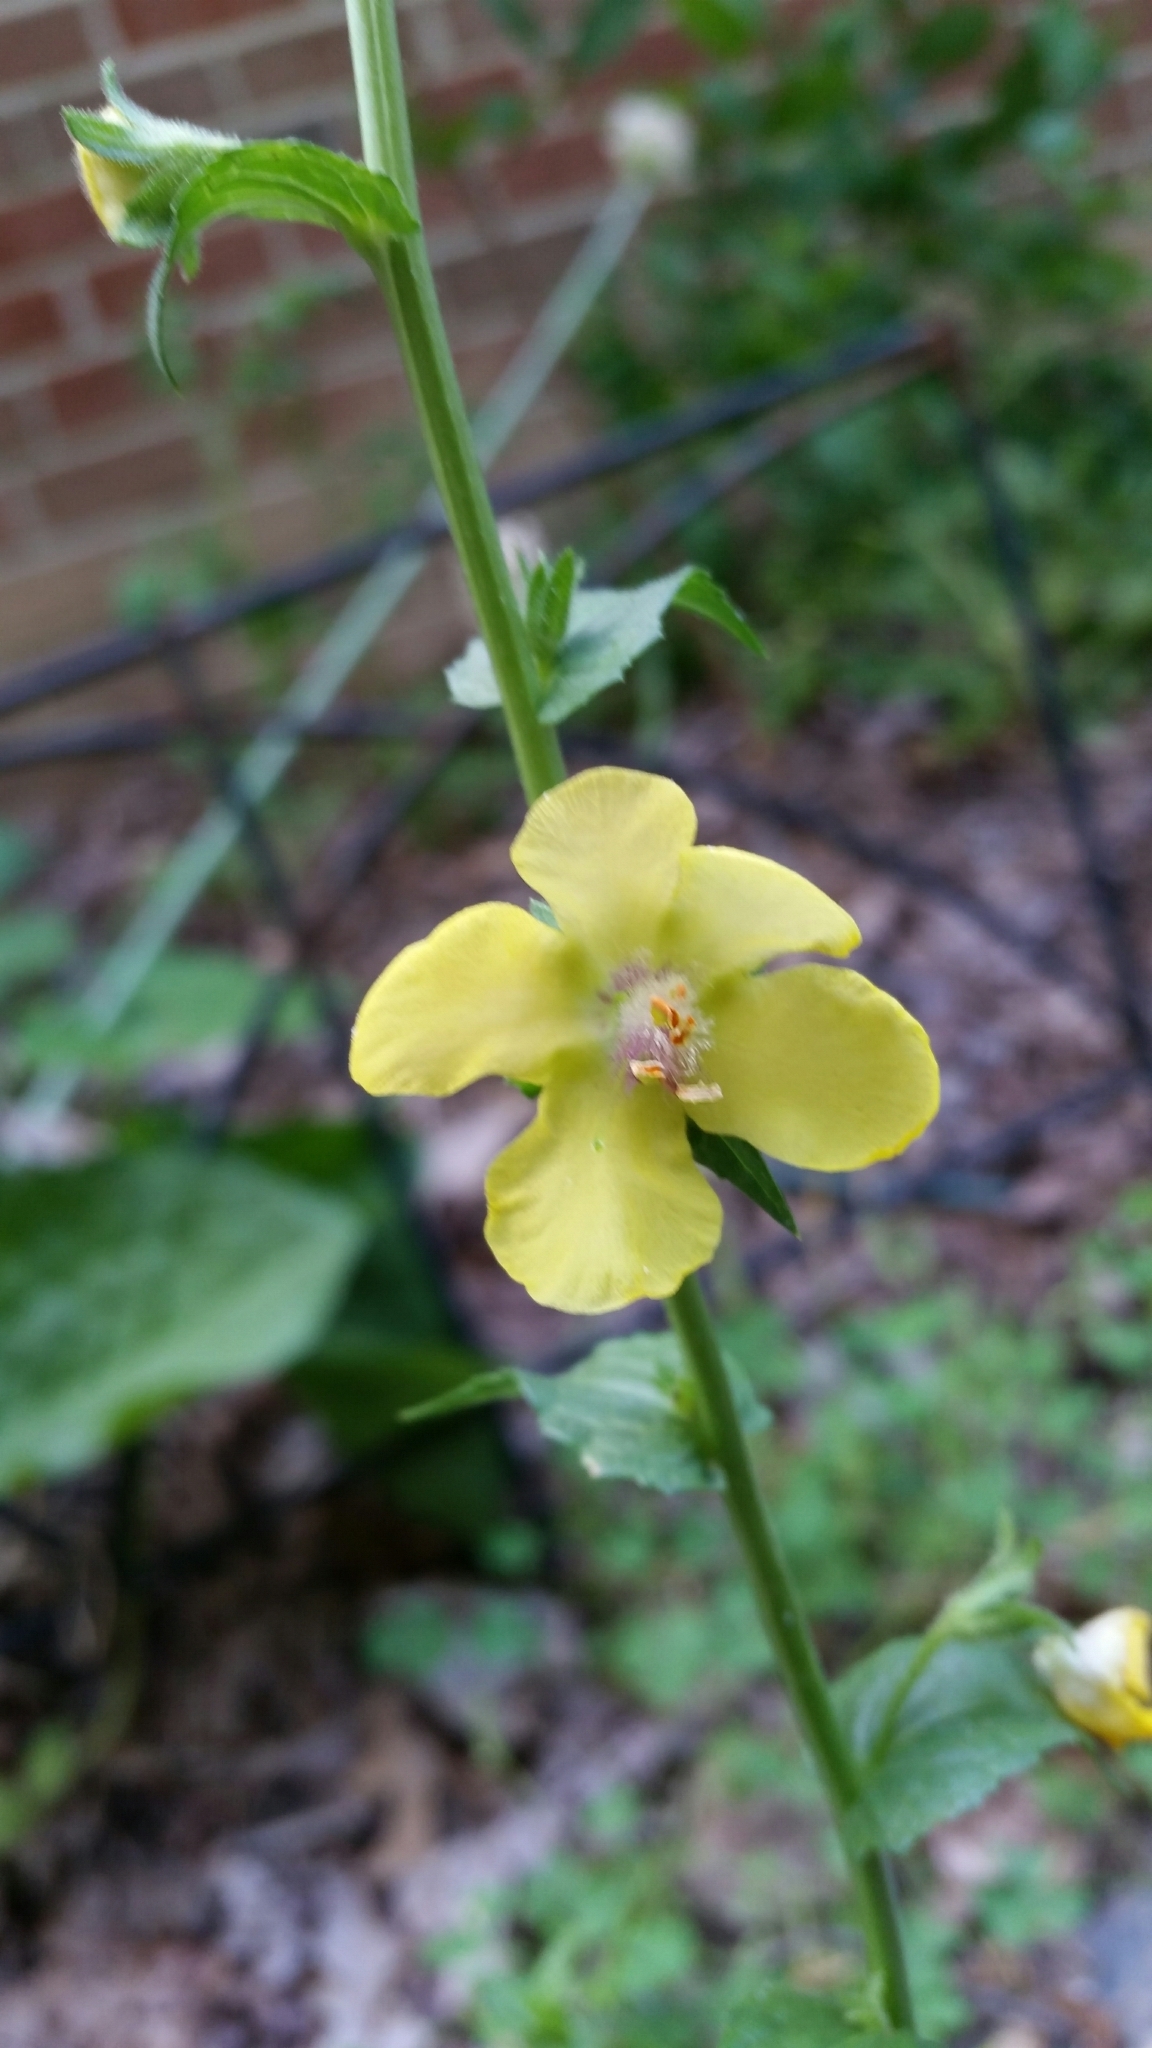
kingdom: Plantae
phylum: Tracheophyta
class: Magnoliopsida
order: Lamiales
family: Scrophulariaceae
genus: Verbascum
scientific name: Verbascum blattaria
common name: Moth mullein
